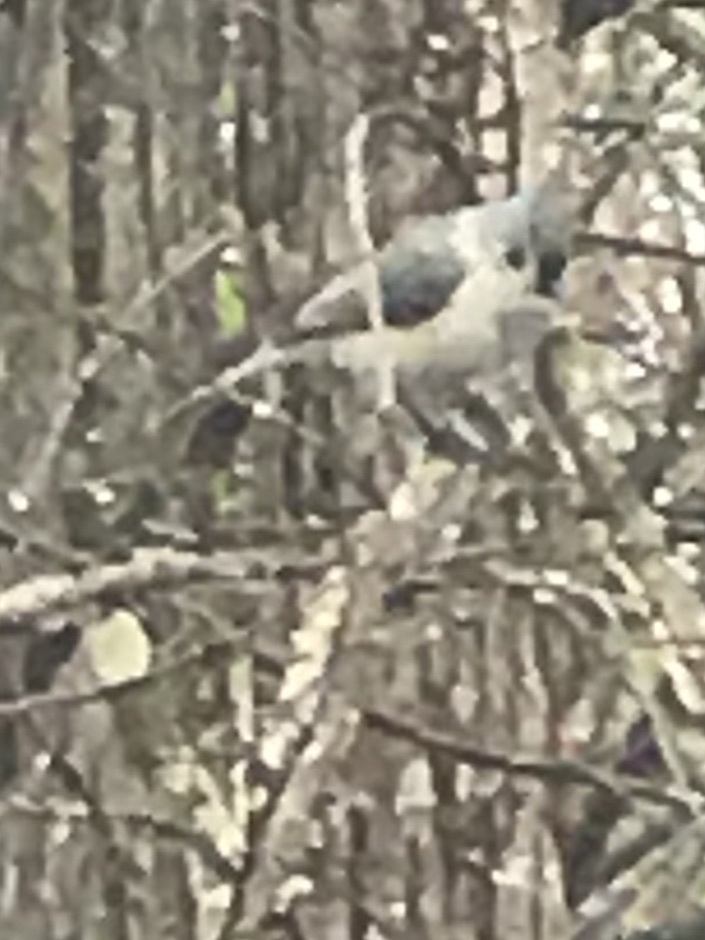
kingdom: Animalia
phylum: Chordata
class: Aves
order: Passeriformes
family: Paridae
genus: Baeolophus
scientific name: Baeolophus bicolor
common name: Tufted titmouse
